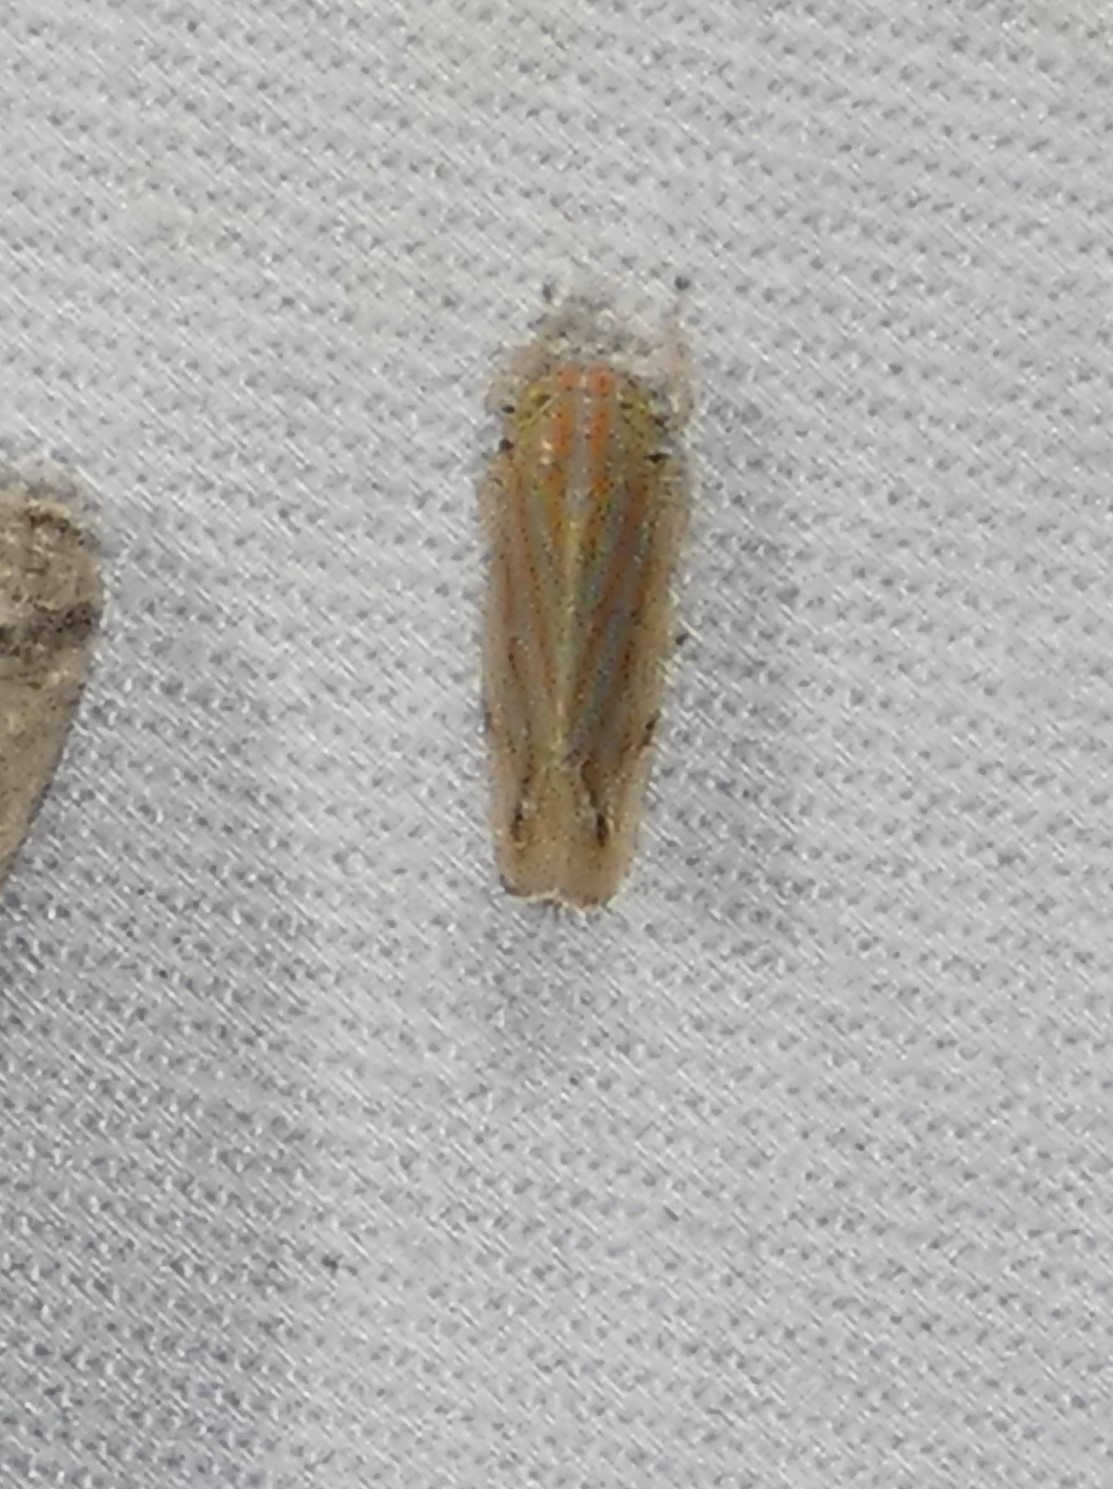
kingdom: Animalia
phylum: Arthropoda
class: Insecta
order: Hemiptera
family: Cicadellidae
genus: Deltanus
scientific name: Deltanus texanus
